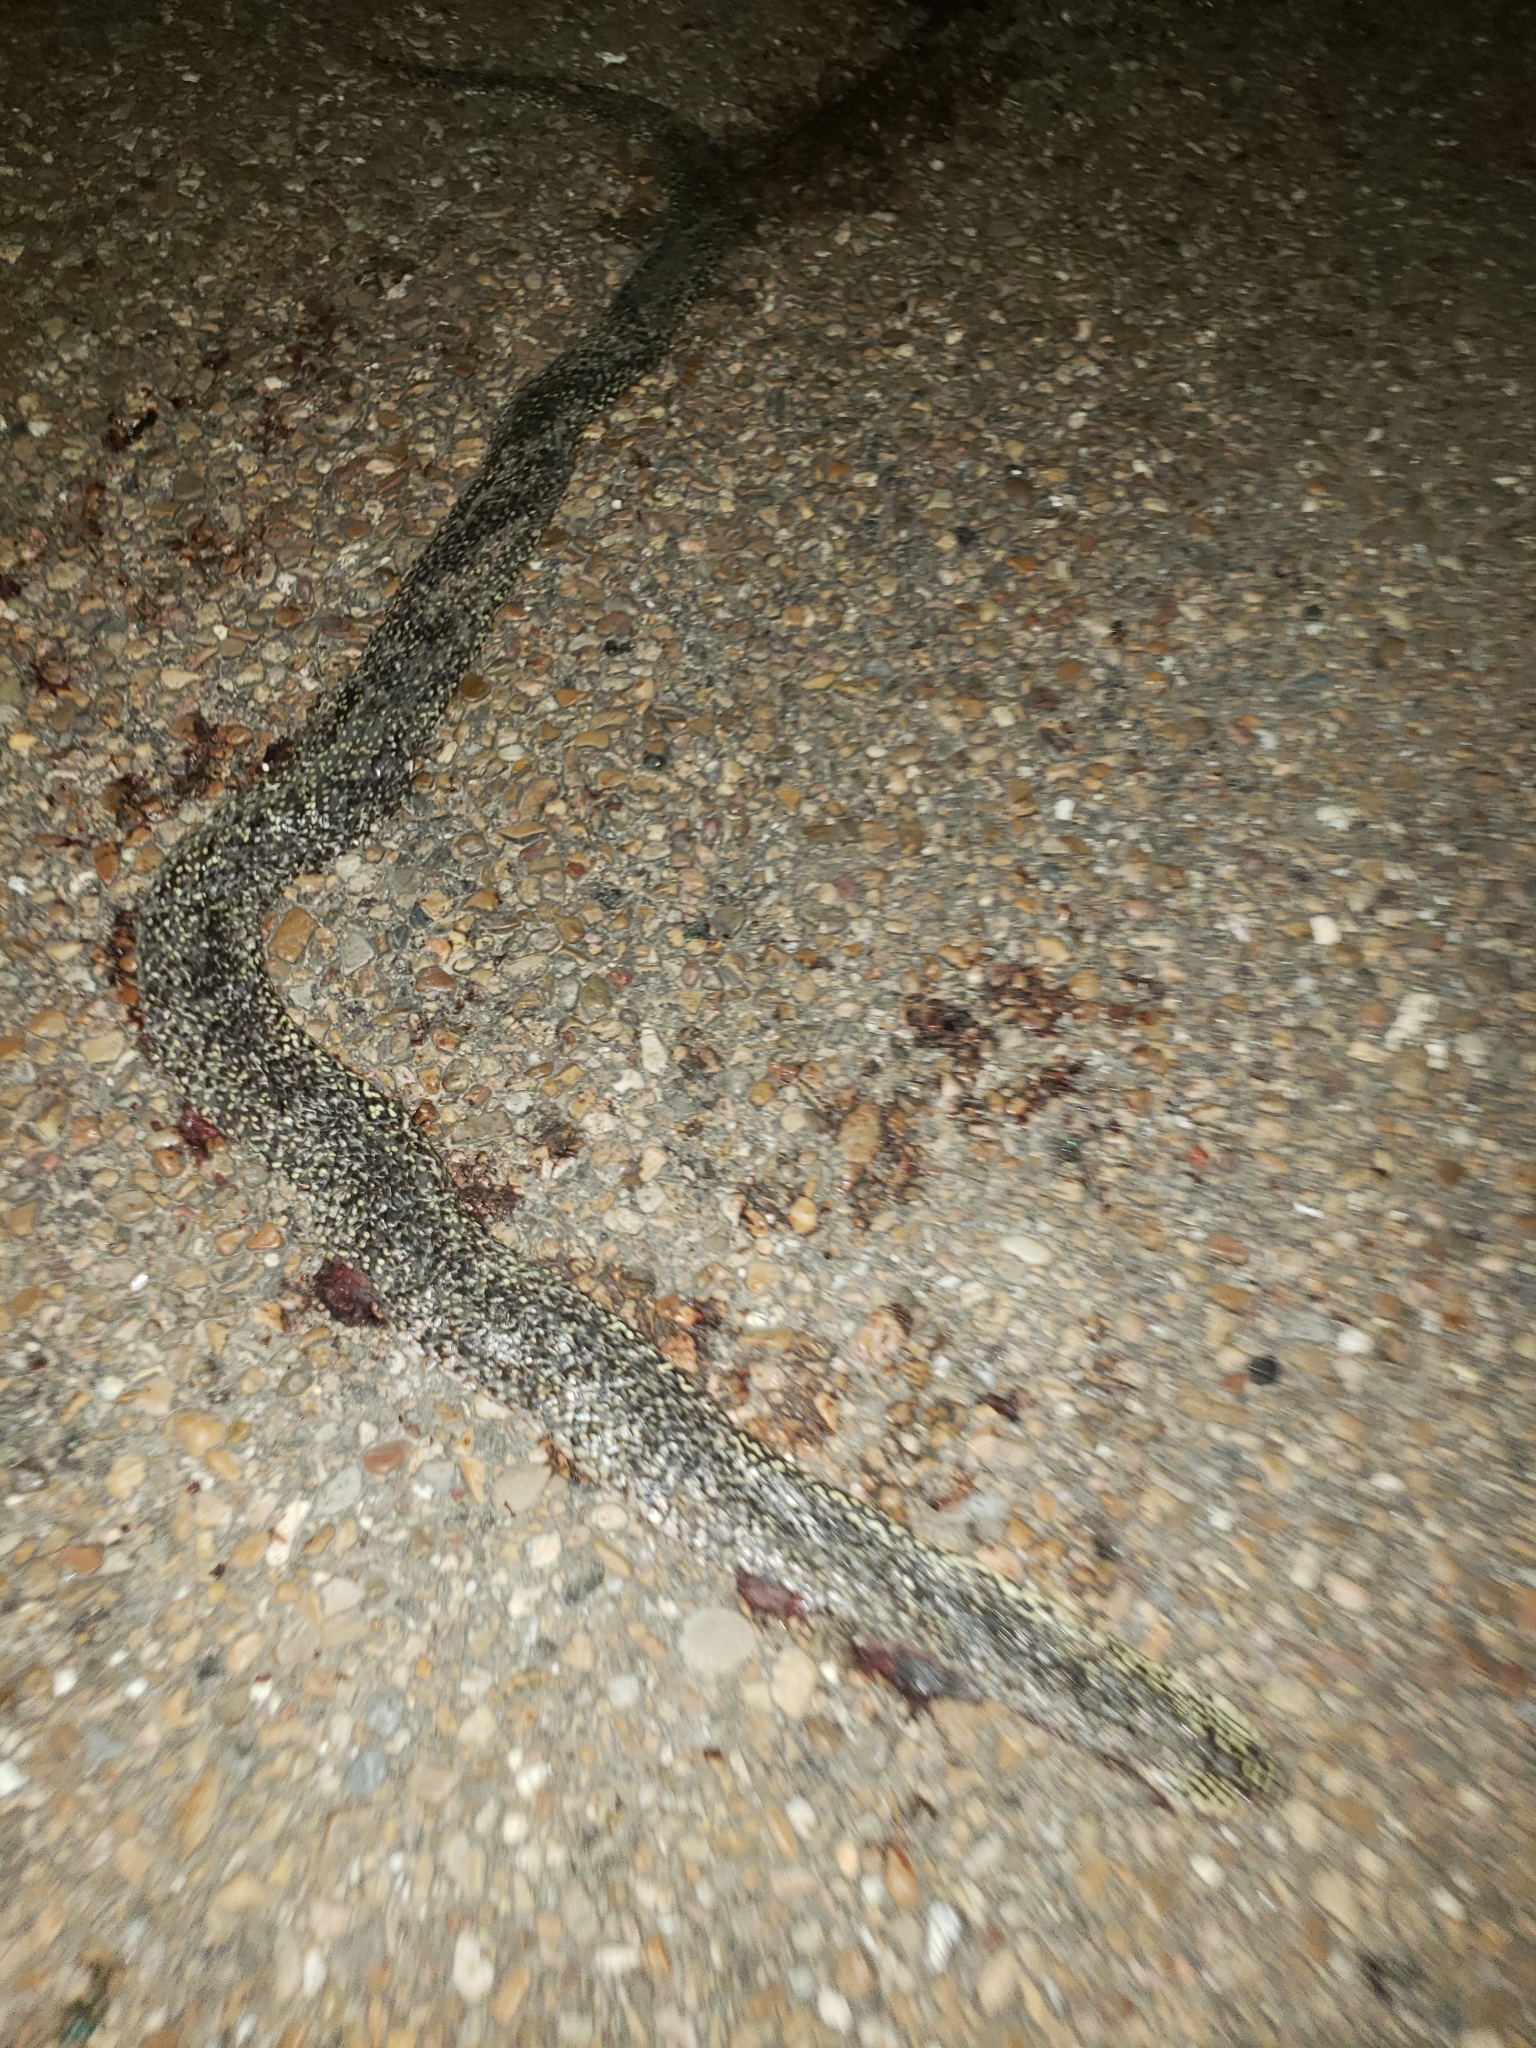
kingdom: Animalia
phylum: Chordata
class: Squamata
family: Colubridae
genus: Lampropeltis
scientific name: Lampropeltis holbrooki
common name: Speckled kingsnake
